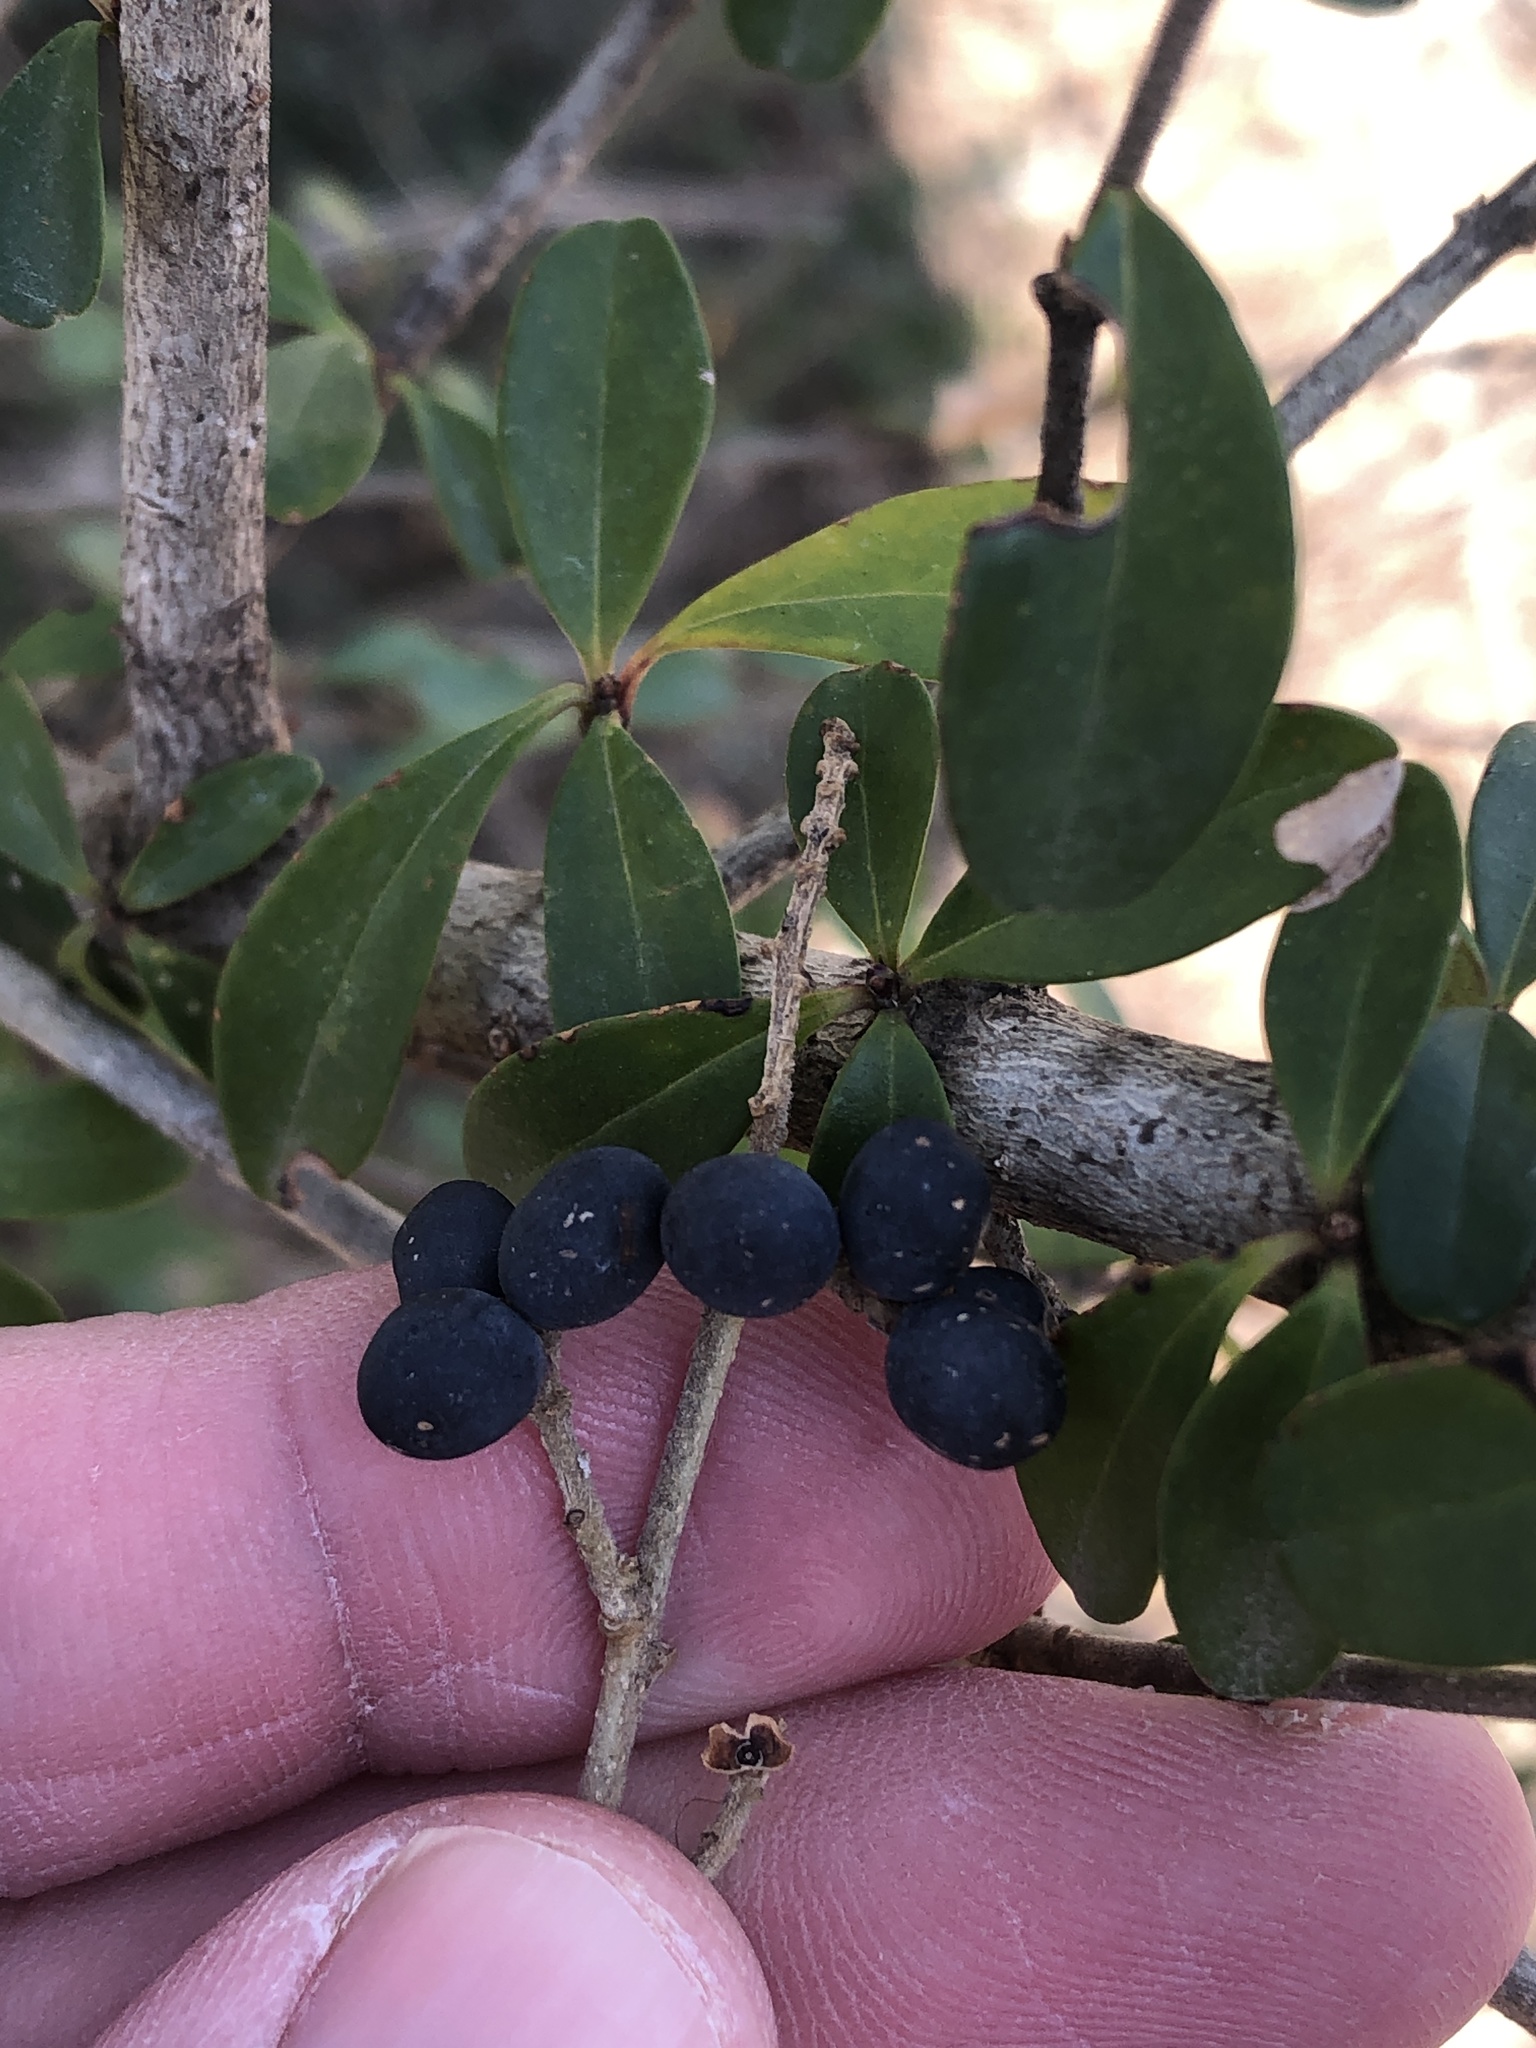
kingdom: Plantae
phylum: Tracheophyta
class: Magnoliopsida
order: Lamiales
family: Oleaceae
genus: Ligustrum
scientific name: Ligustrum quihoui
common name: Waxyleaf privet
